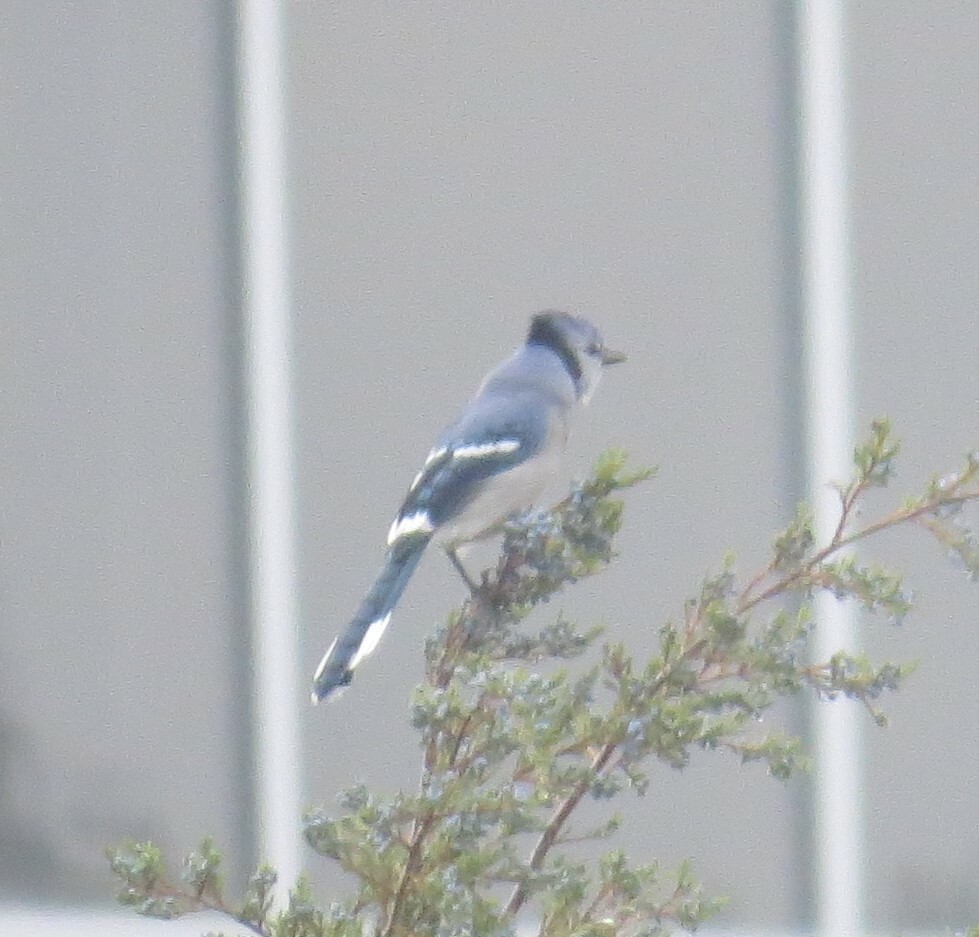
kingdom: Animalia
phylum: Chordata
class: Aves
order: Passeriformes
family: Corvidae
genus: Cyanocitta
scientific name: Cyanocitta cristata
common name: Blue jay
